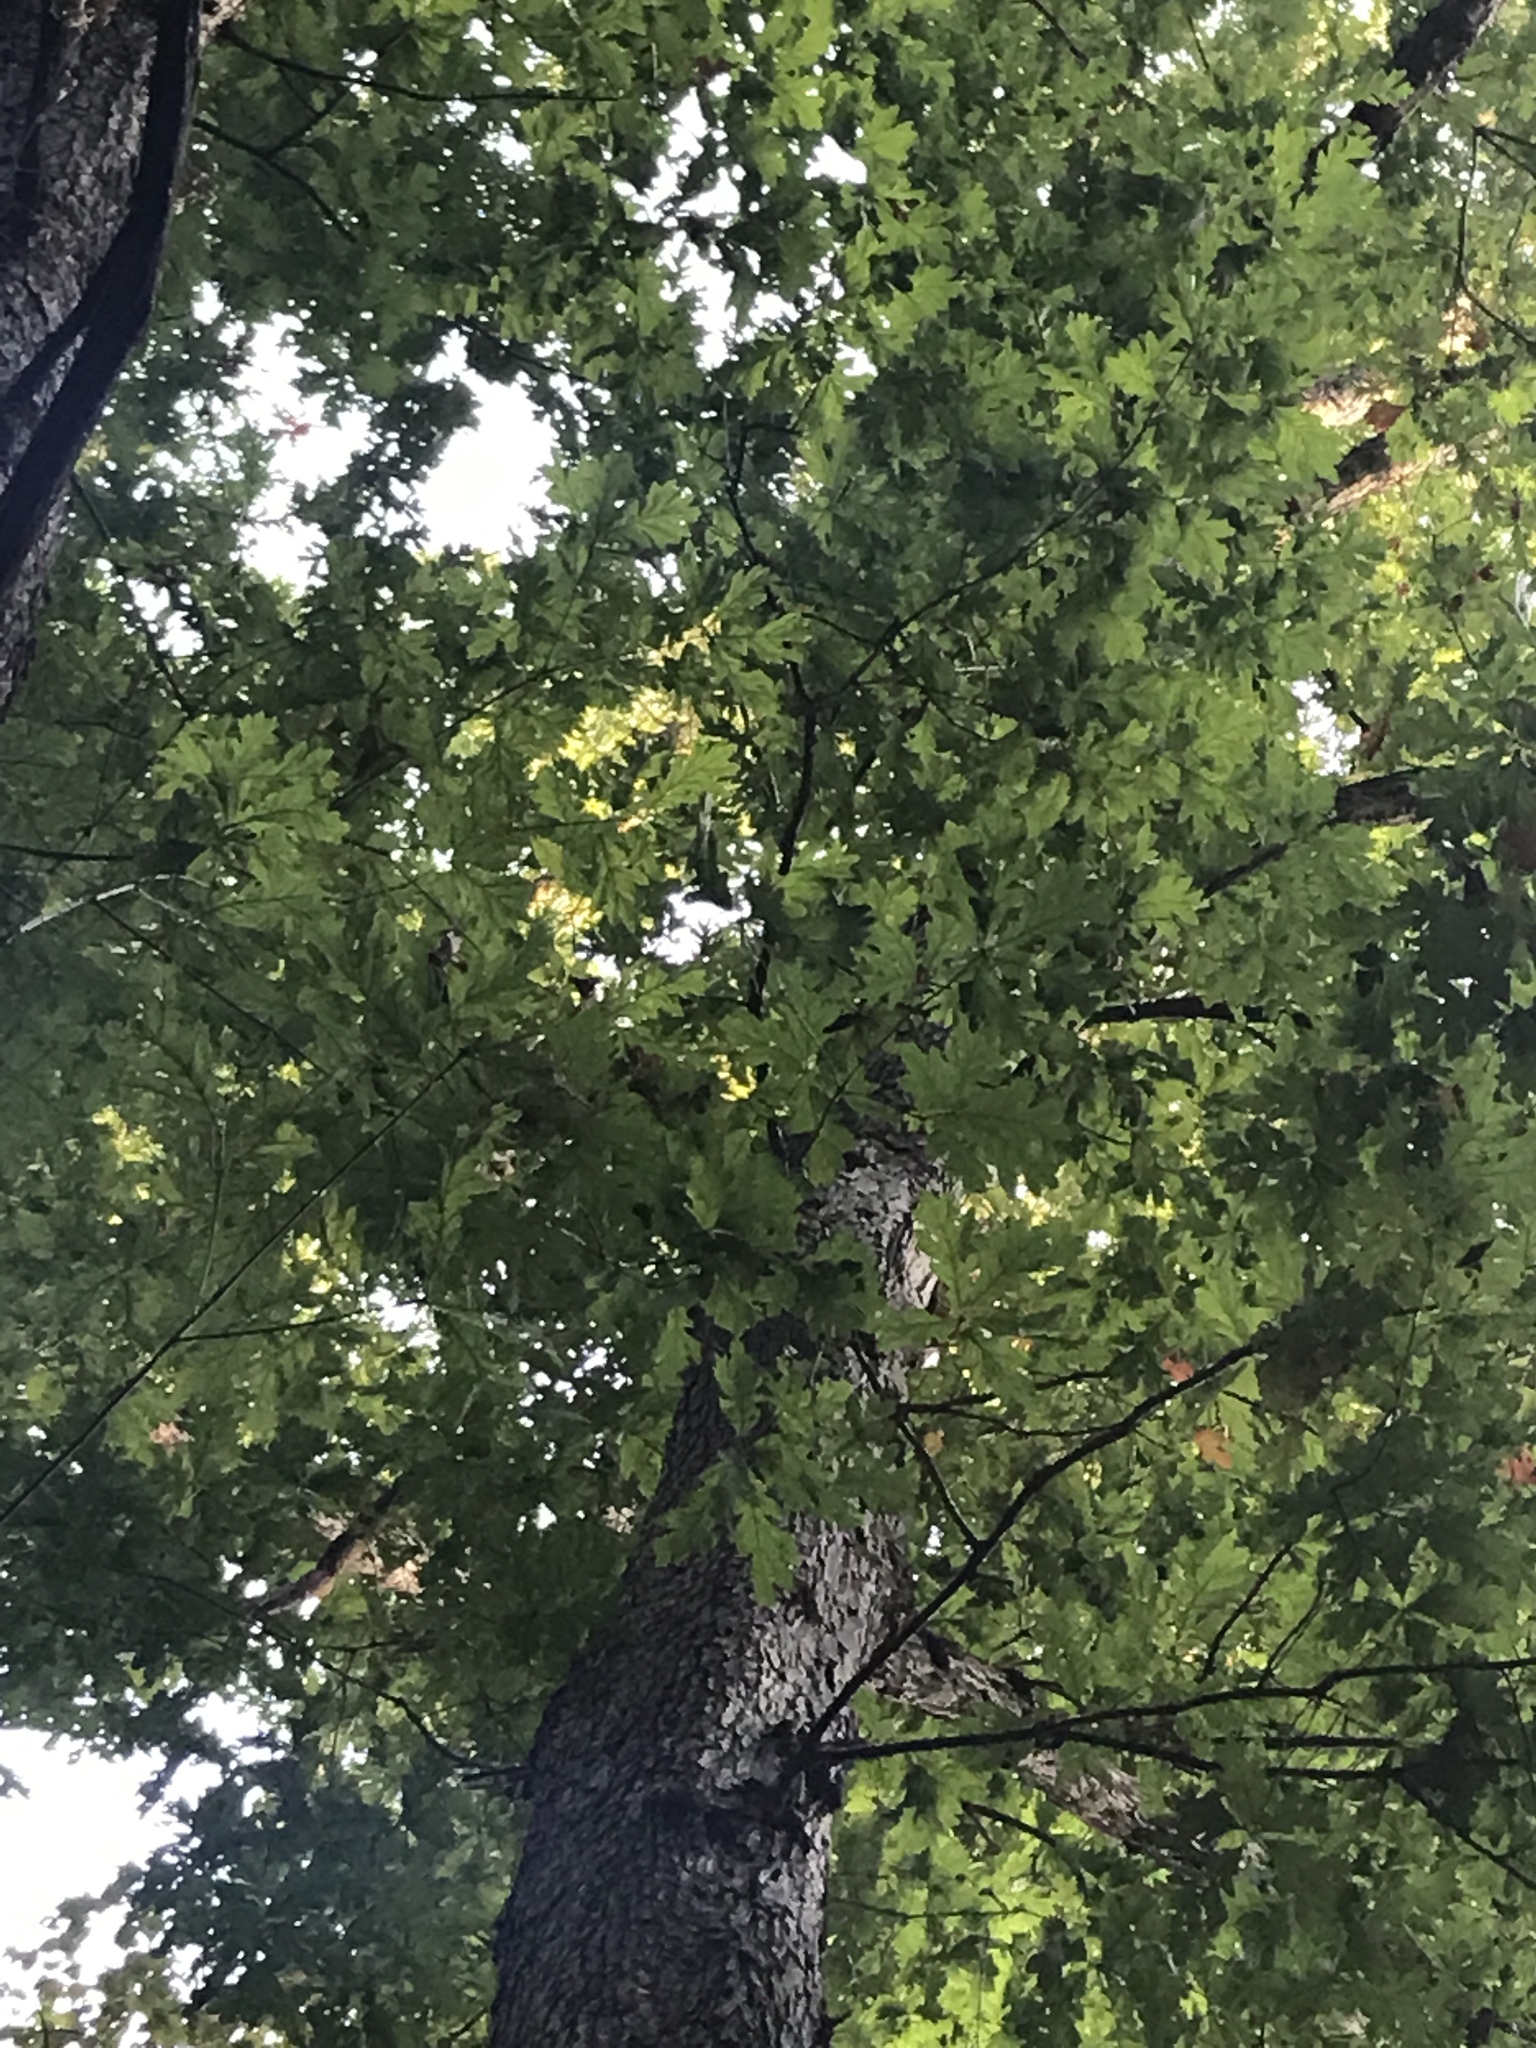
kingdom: Plantae
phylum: Tracheophyta
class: Magnoliopsida
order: Fagales
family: Fagaceae
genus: Quercus
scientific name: Quercus alba
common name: White oak
